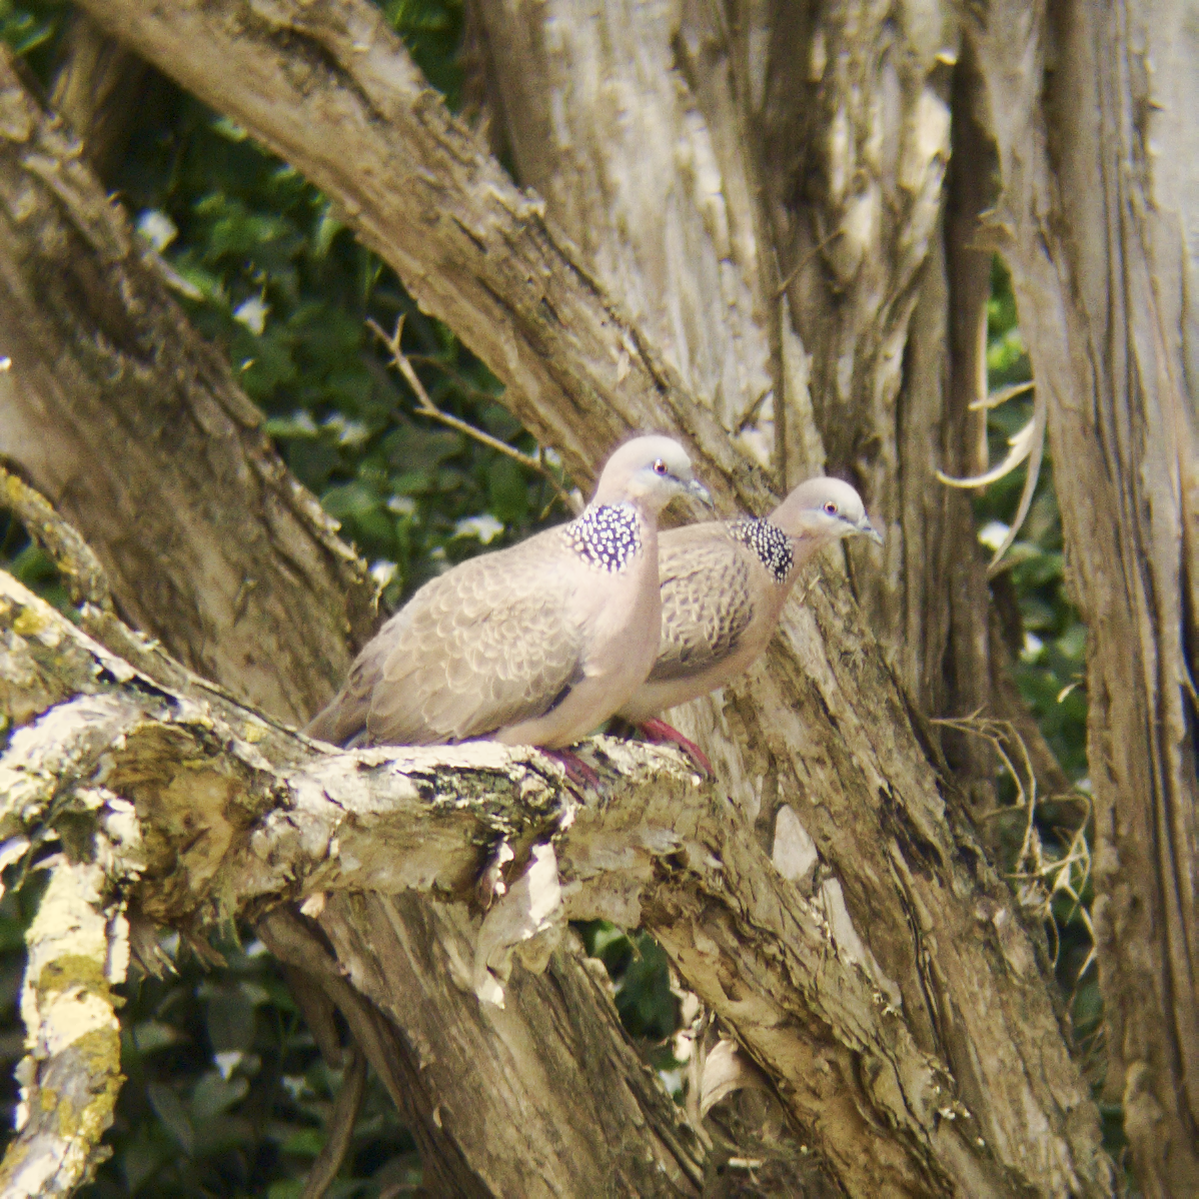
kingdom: Animalia
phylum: Chordata
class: Aves
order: Columbiformes
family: Columbidae
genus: Spilopelia
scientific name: Spilopelia chinensis
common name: Spotted dove
